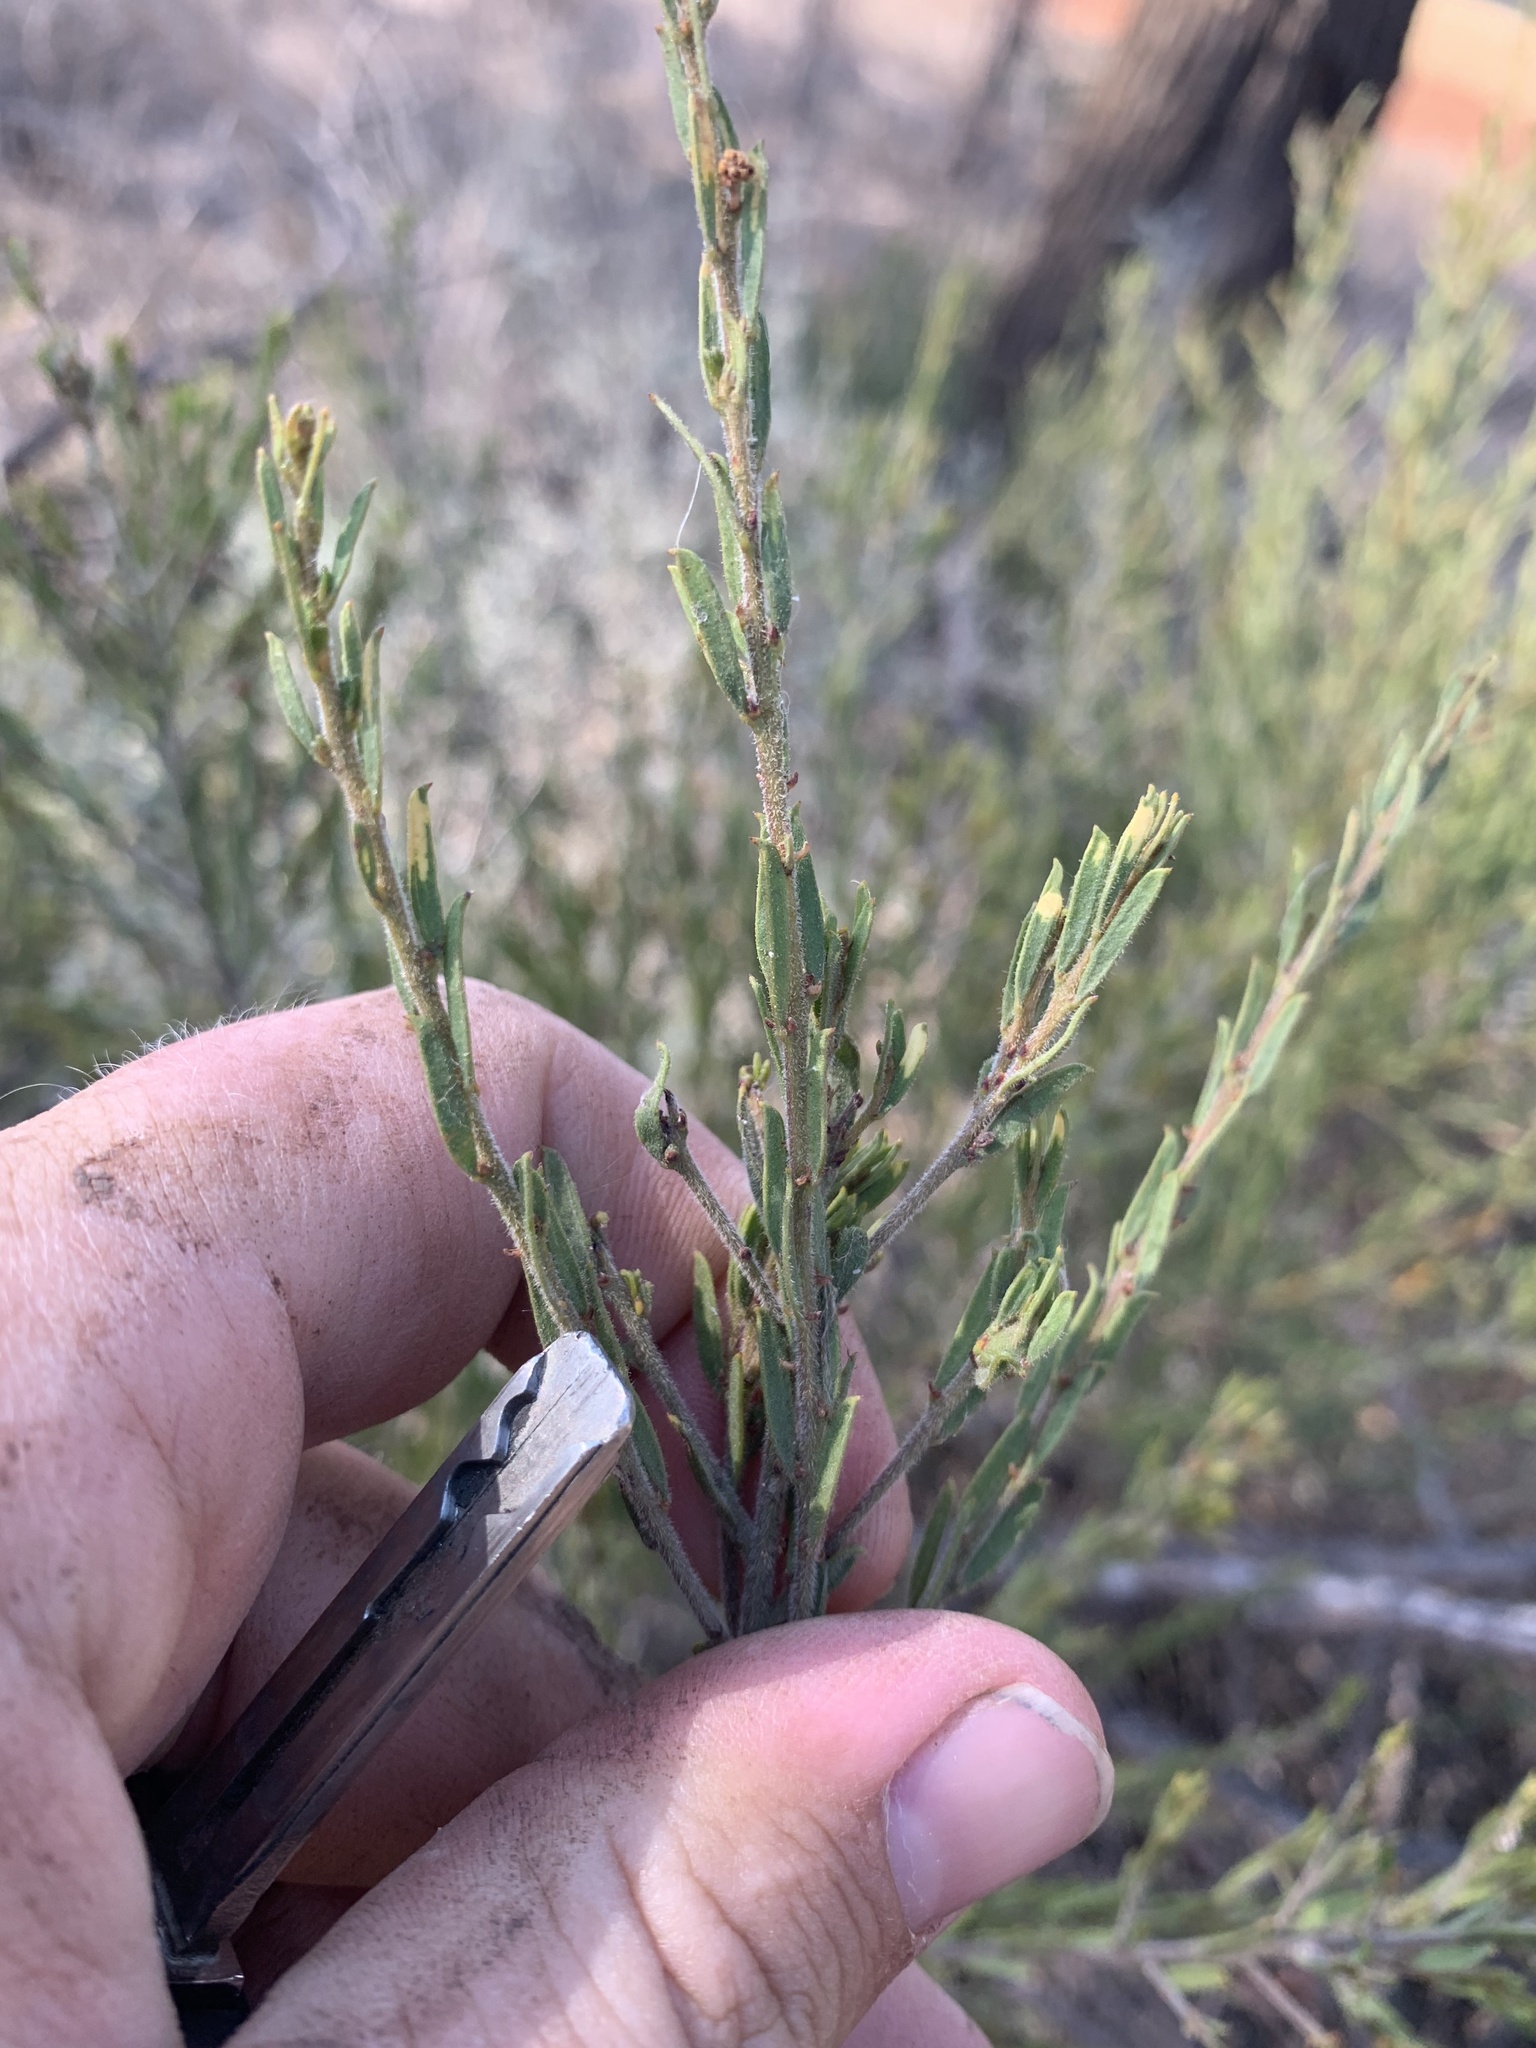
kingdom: Plantae
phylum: Tracheophyta
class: Magnoliopsida
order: Fabales
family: Fabaceae
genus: Acacia
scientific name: Acacia lineata
